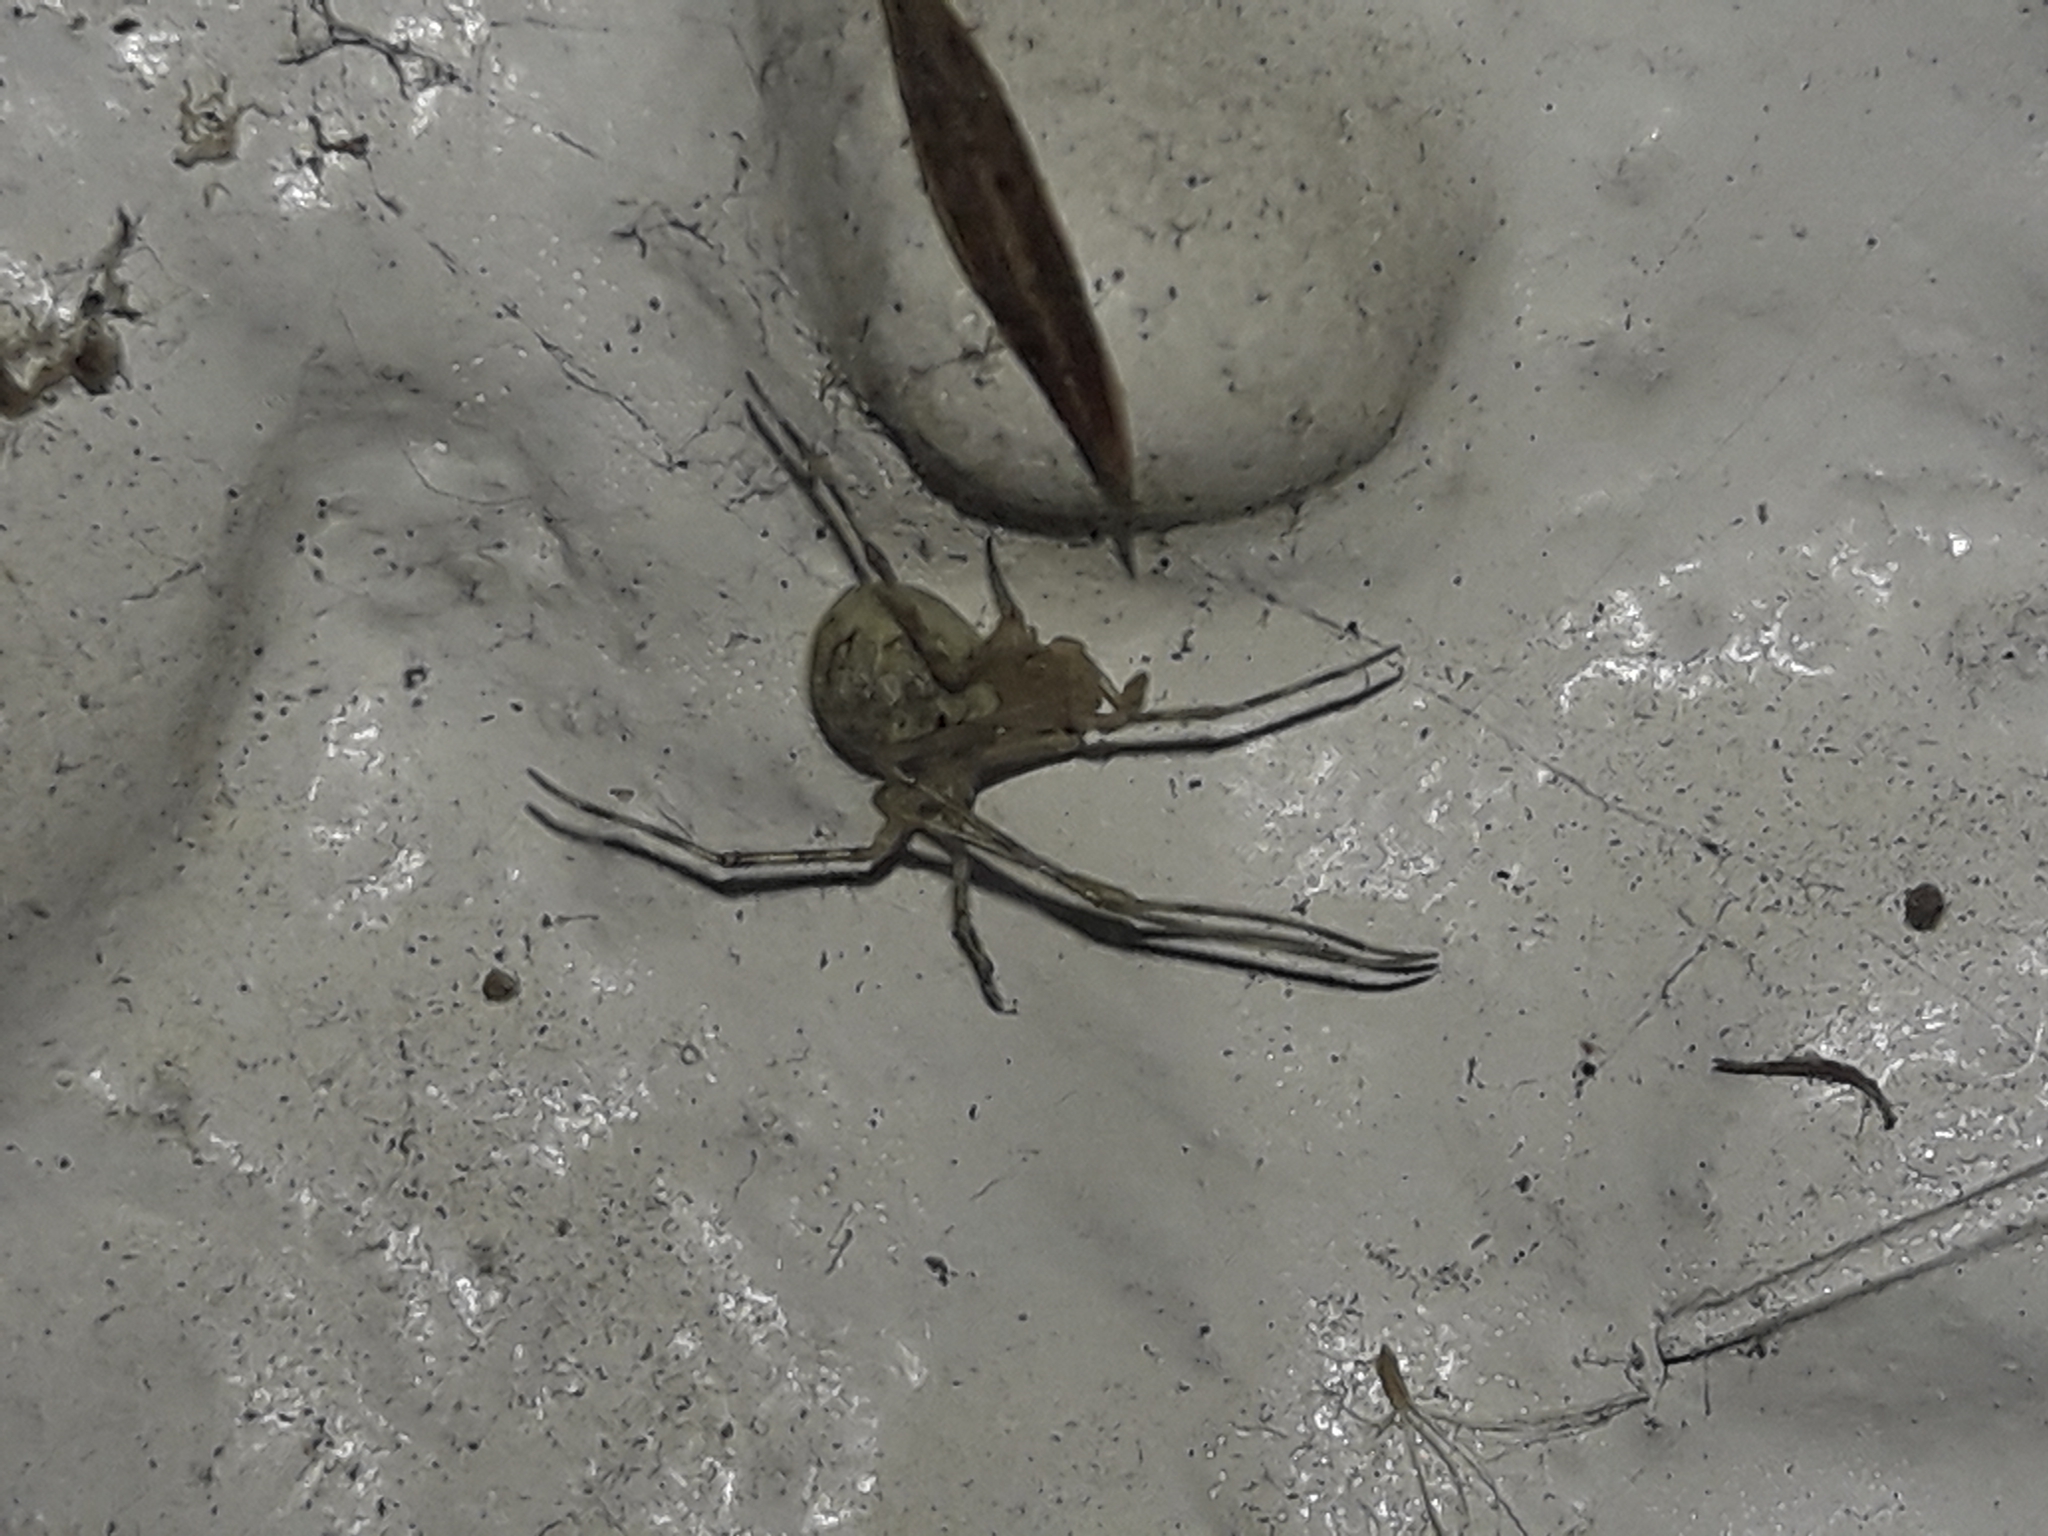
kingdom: Animalia
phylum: Arthropoda
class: Arachnida
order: Araneae
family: Theridiidae
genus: Cryptachaea
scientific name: Cryptachaea gigantipes
